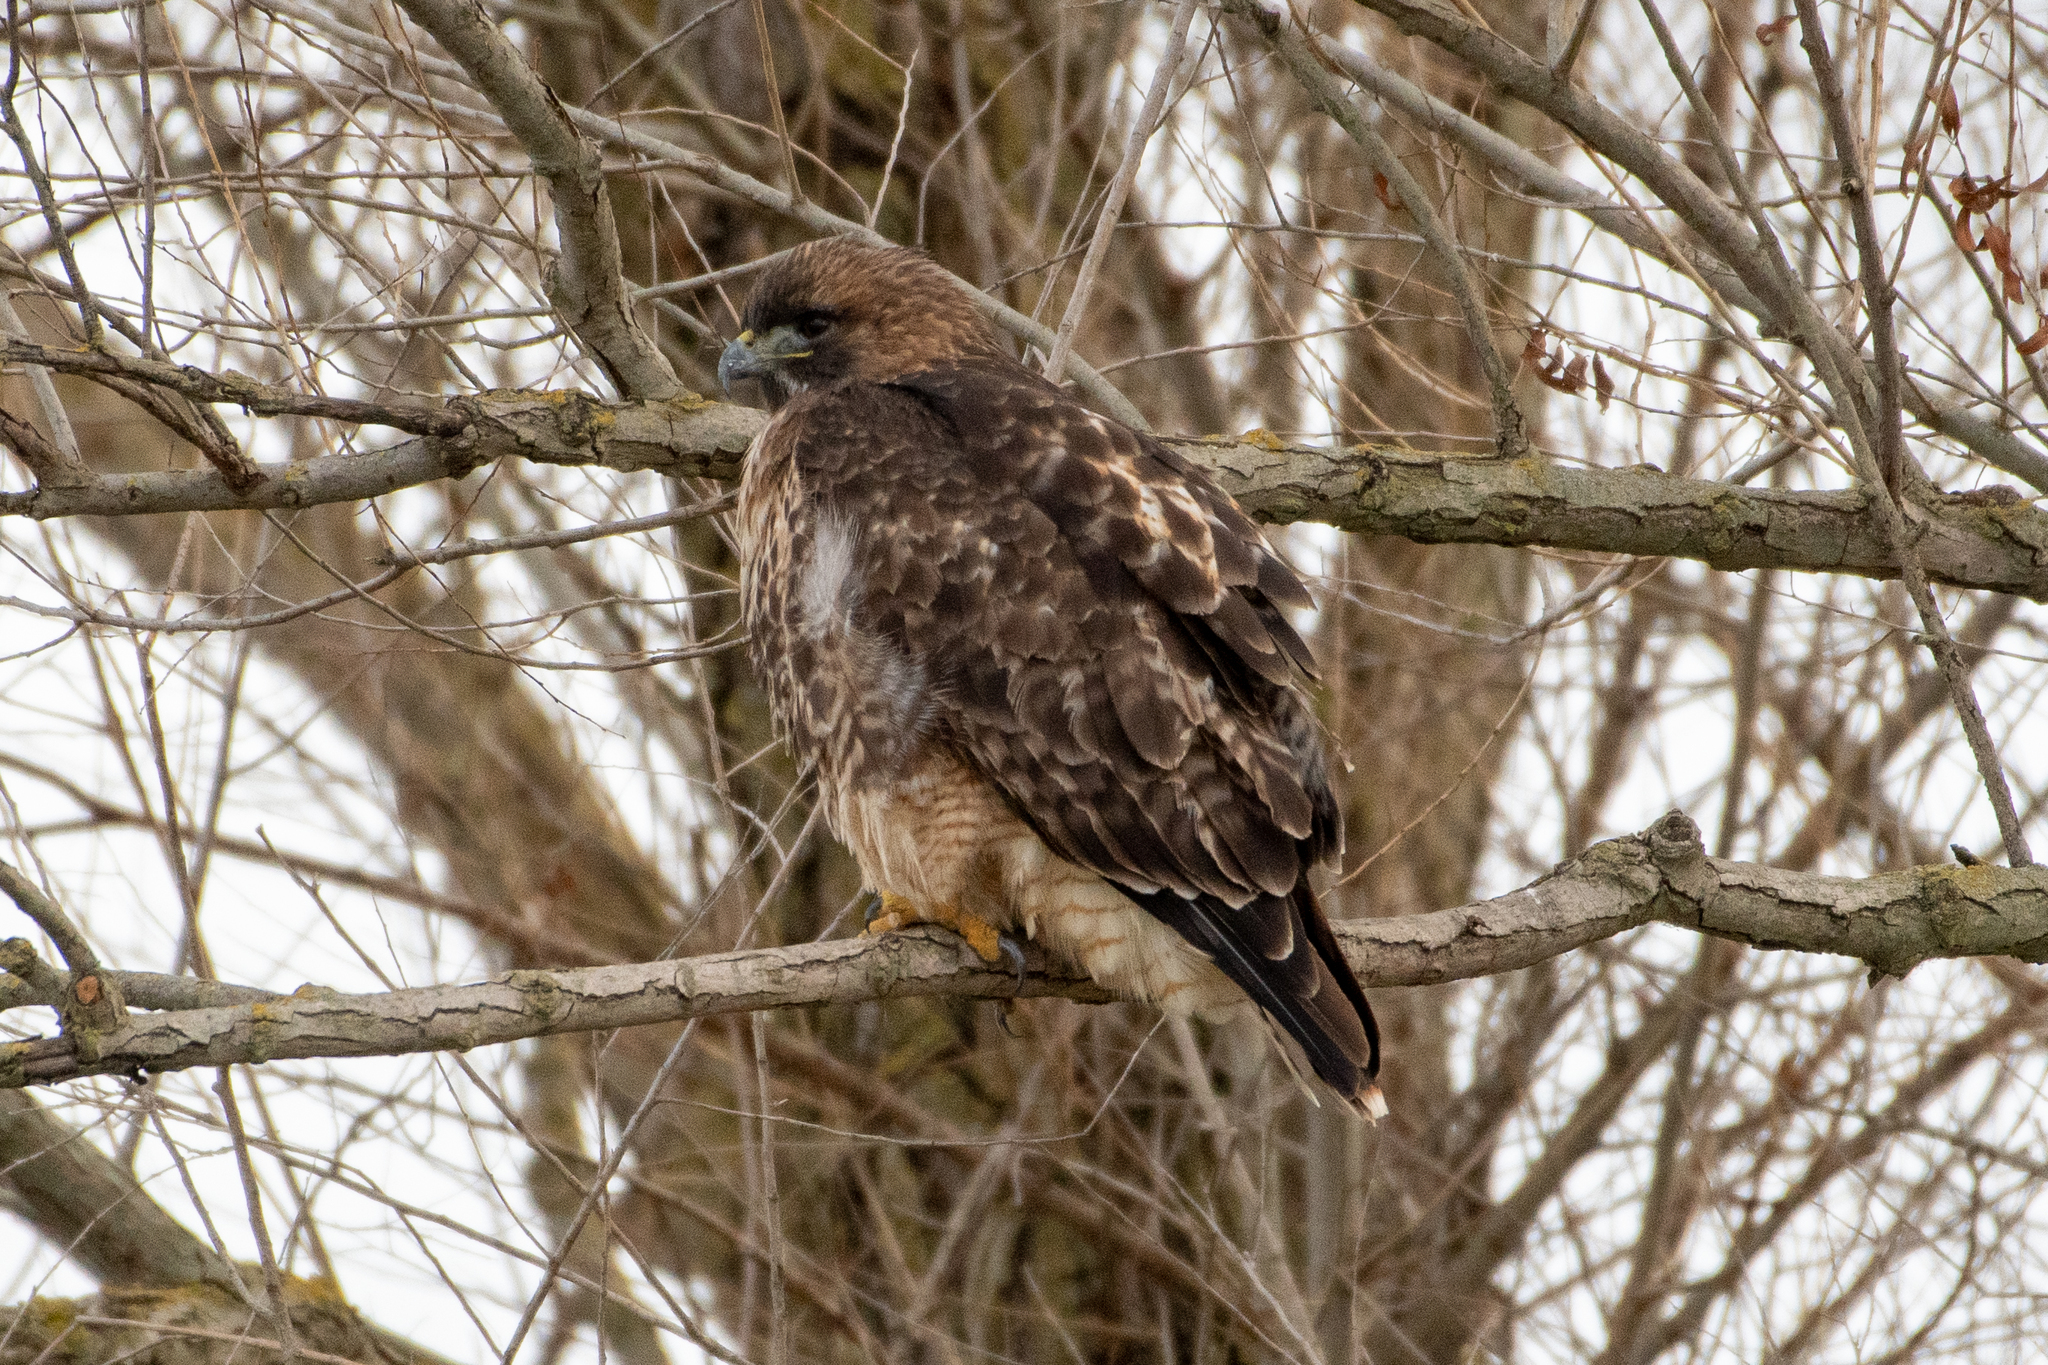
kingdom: Animalia
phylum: Chordata
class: Aves
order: Accipitriformes
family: Accipitridae
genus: Buteo
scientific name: Buteo jamaicensis
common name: Red-tailed hawk
